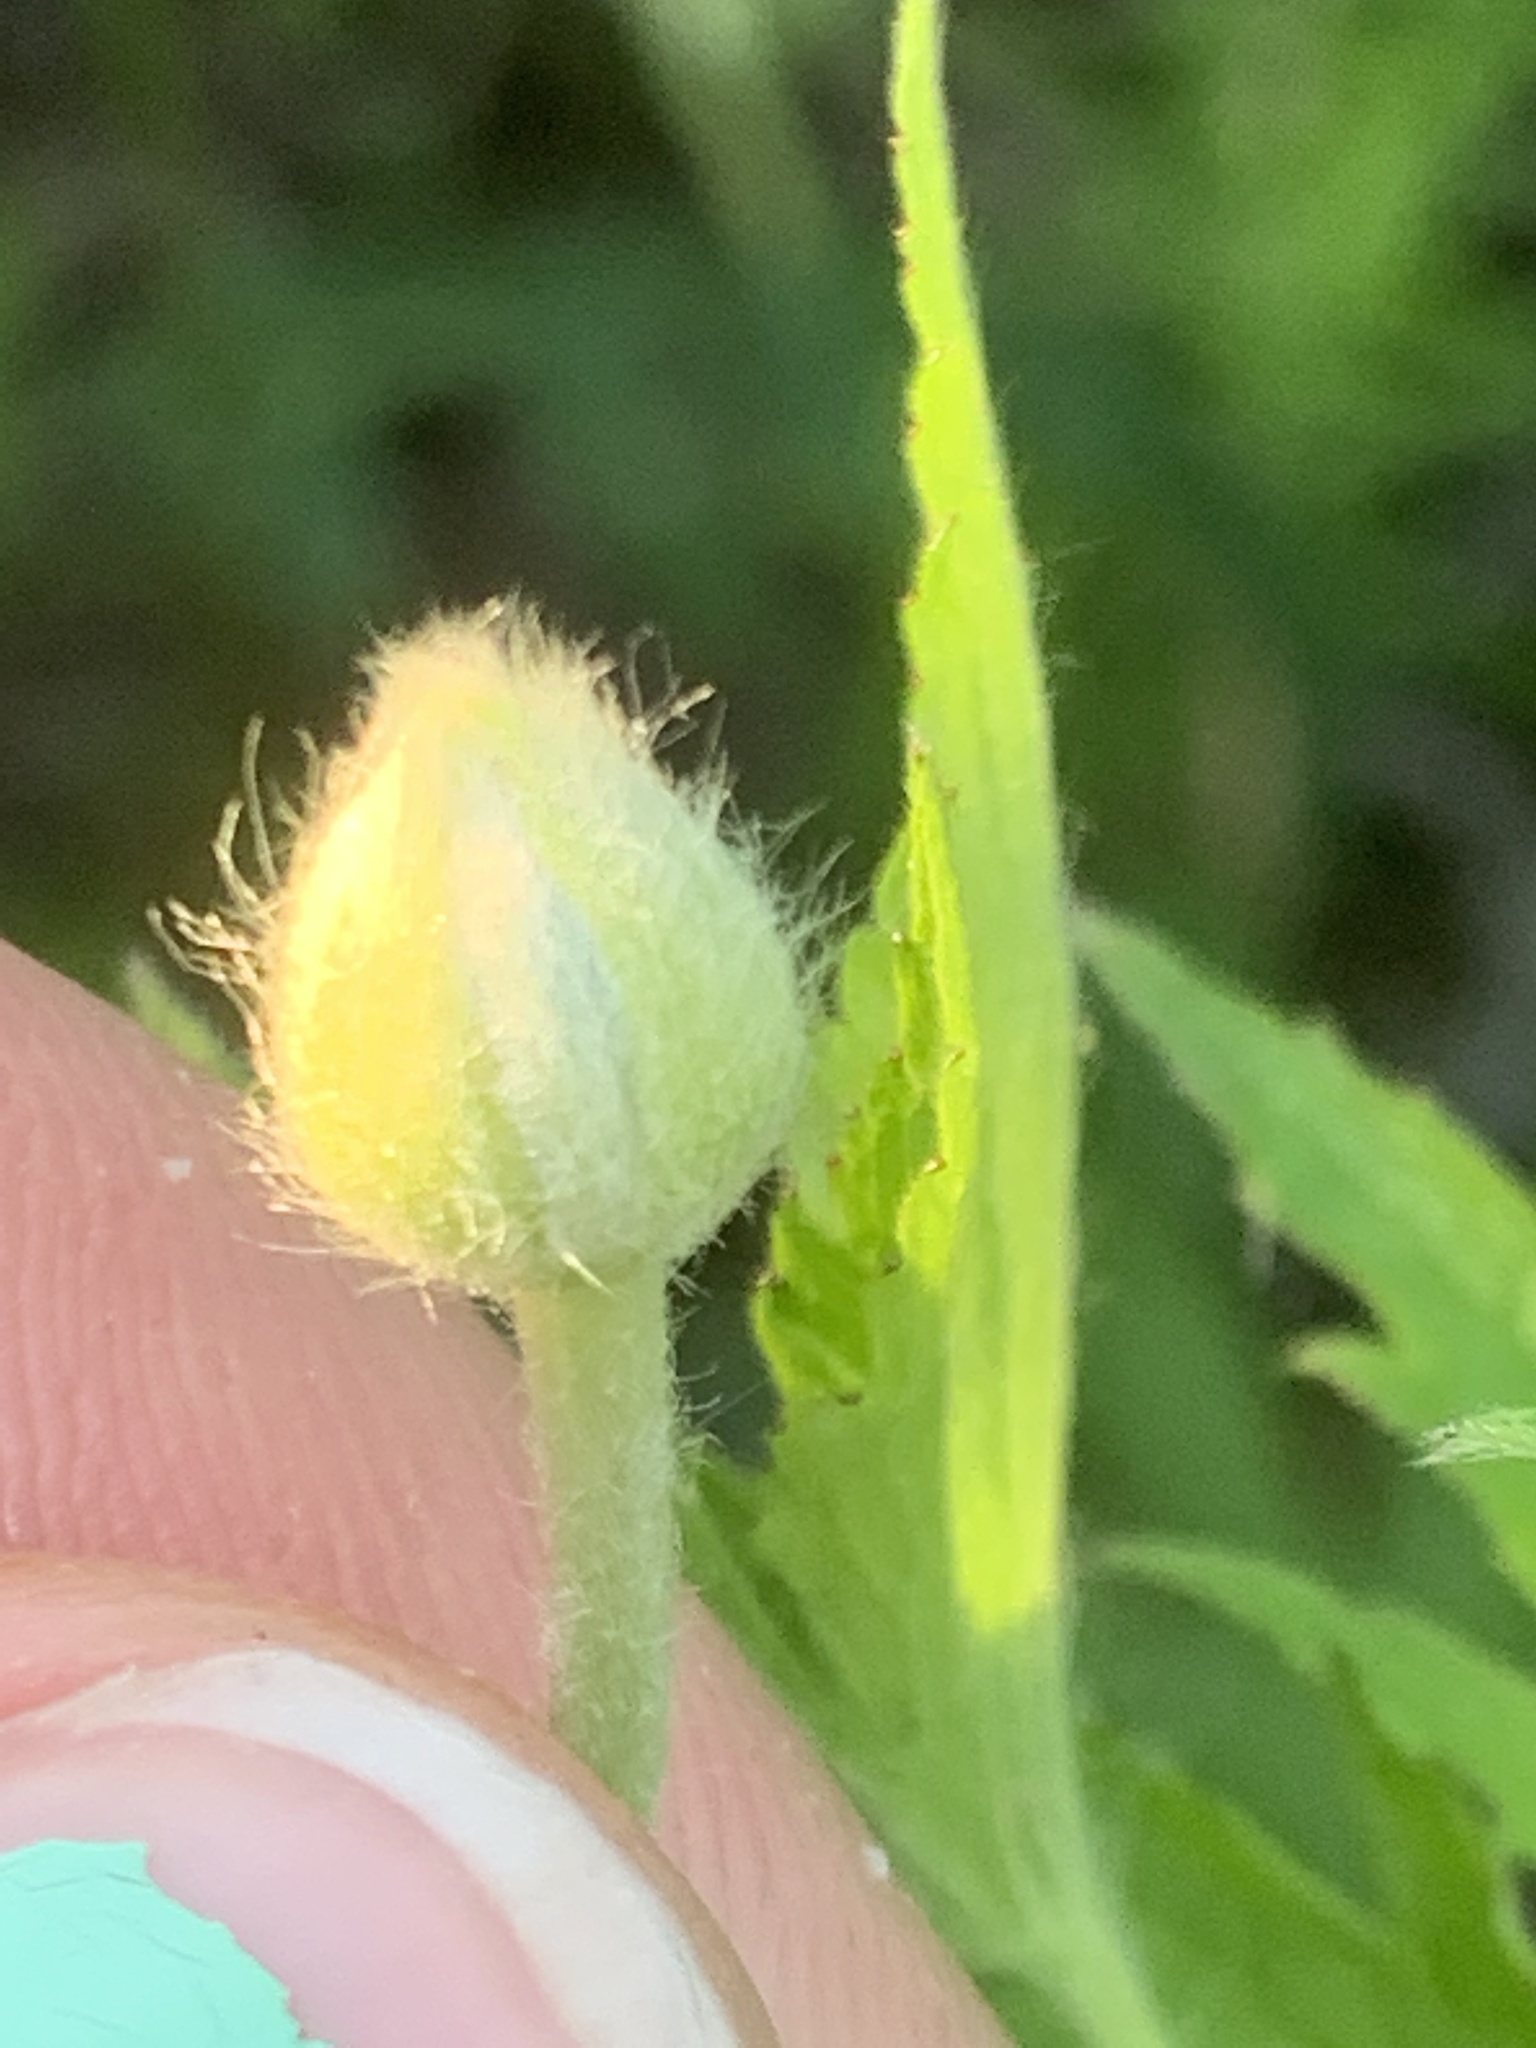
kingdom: Plantae
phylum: Tracheophyta
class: Magnoliopsida
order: Ranunculales
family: Ranunculaceae
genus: Anemonastrum
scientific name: Anemonastrum canadense
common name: Canada anemone
